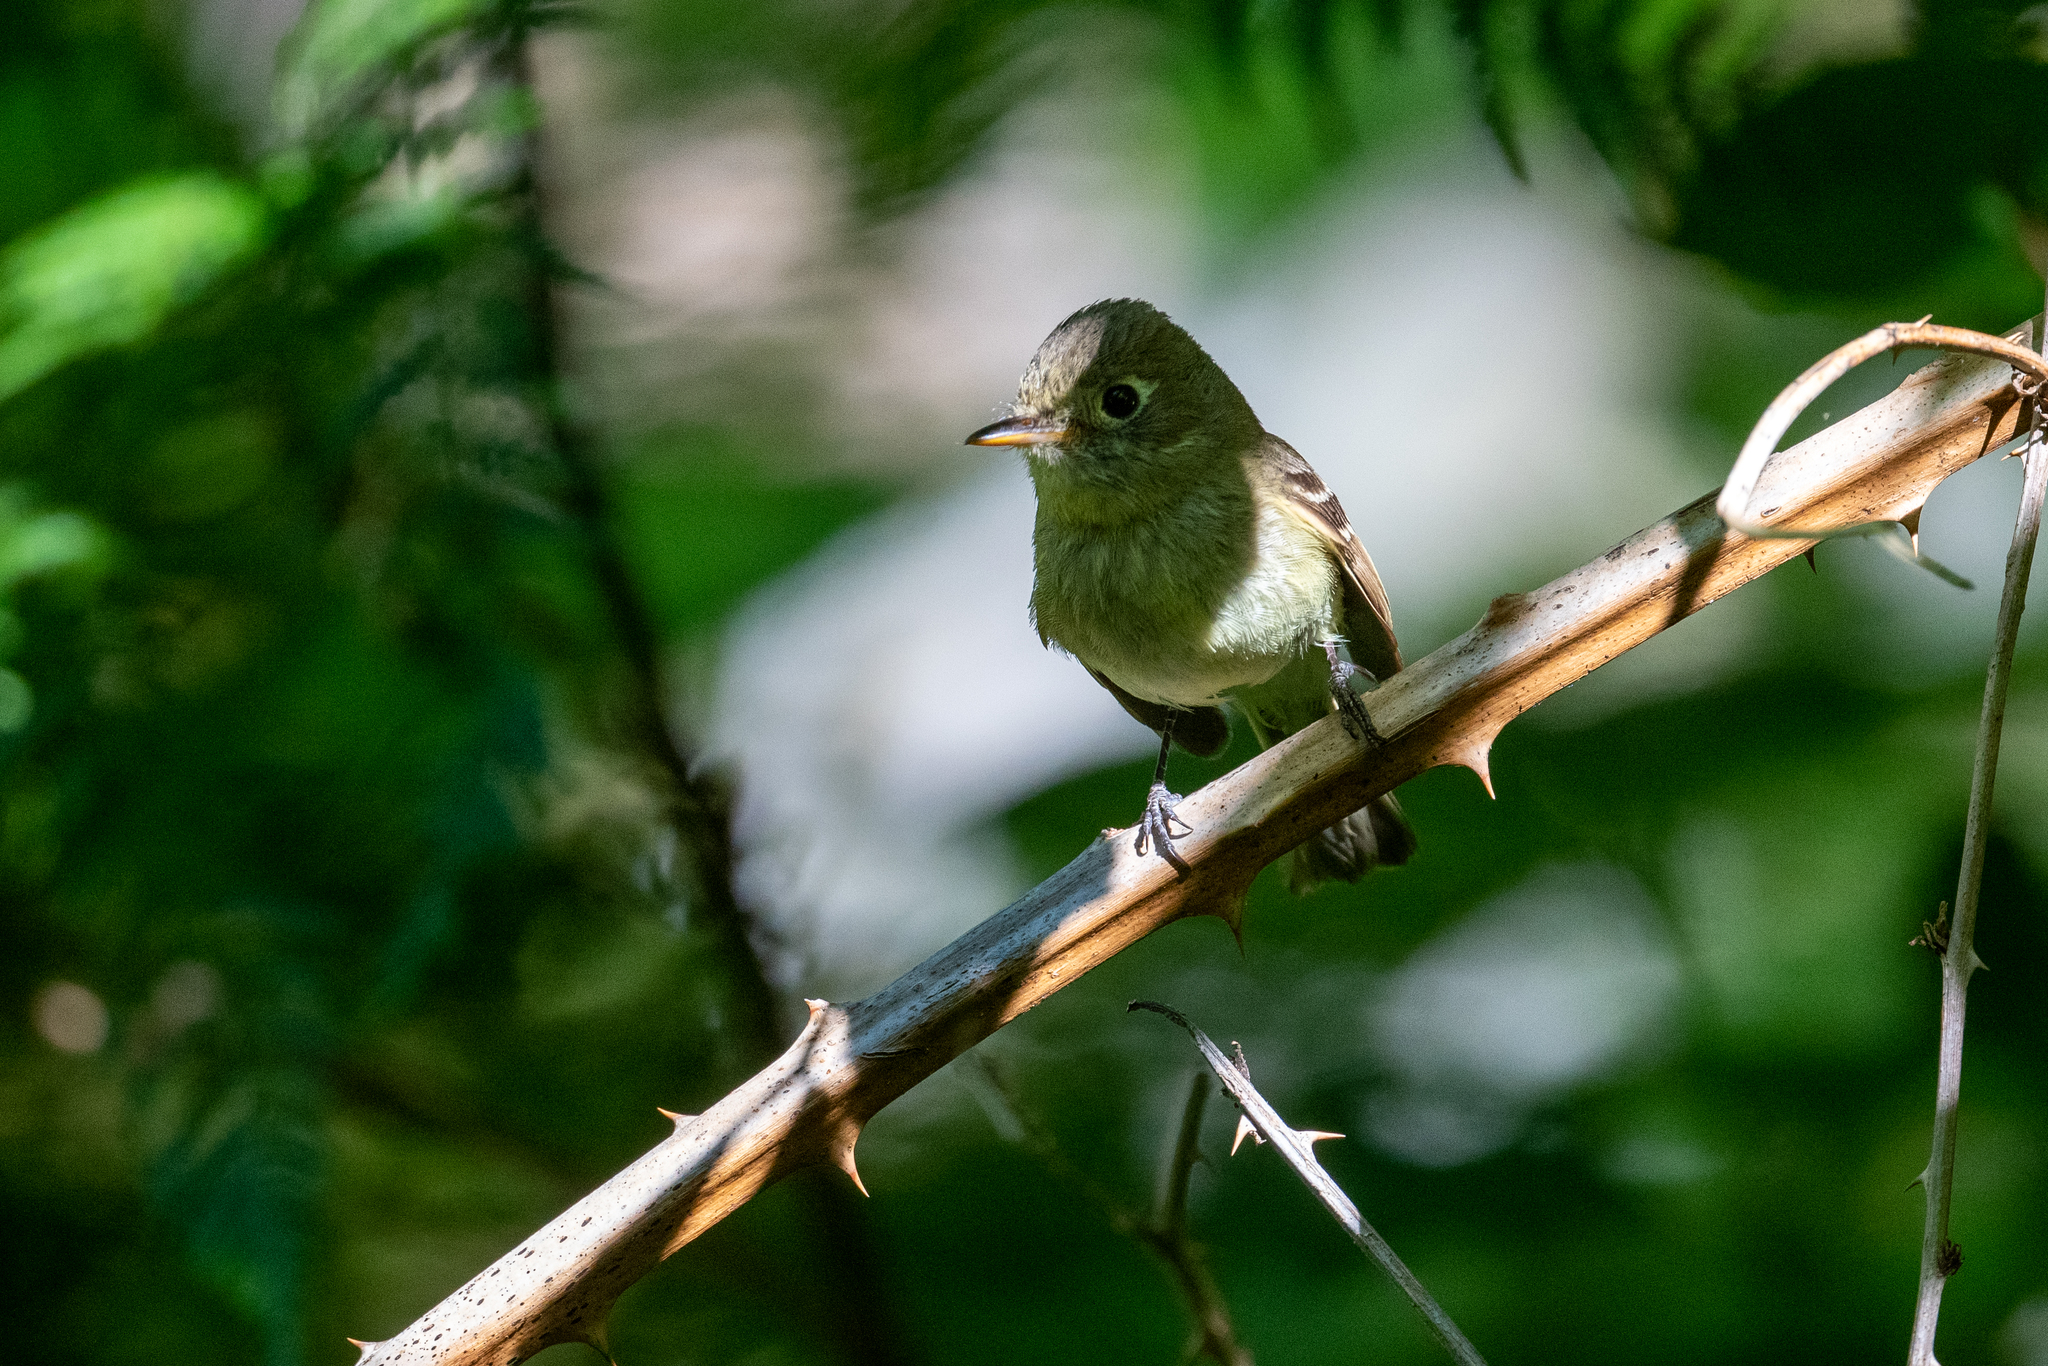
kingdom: Animalia
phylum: Chordata
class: Aves
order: Passeriformes
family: Tyrannidae
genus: Empidonax
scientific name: Empidonax difficilis
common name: Pacific-slope flycatcher
